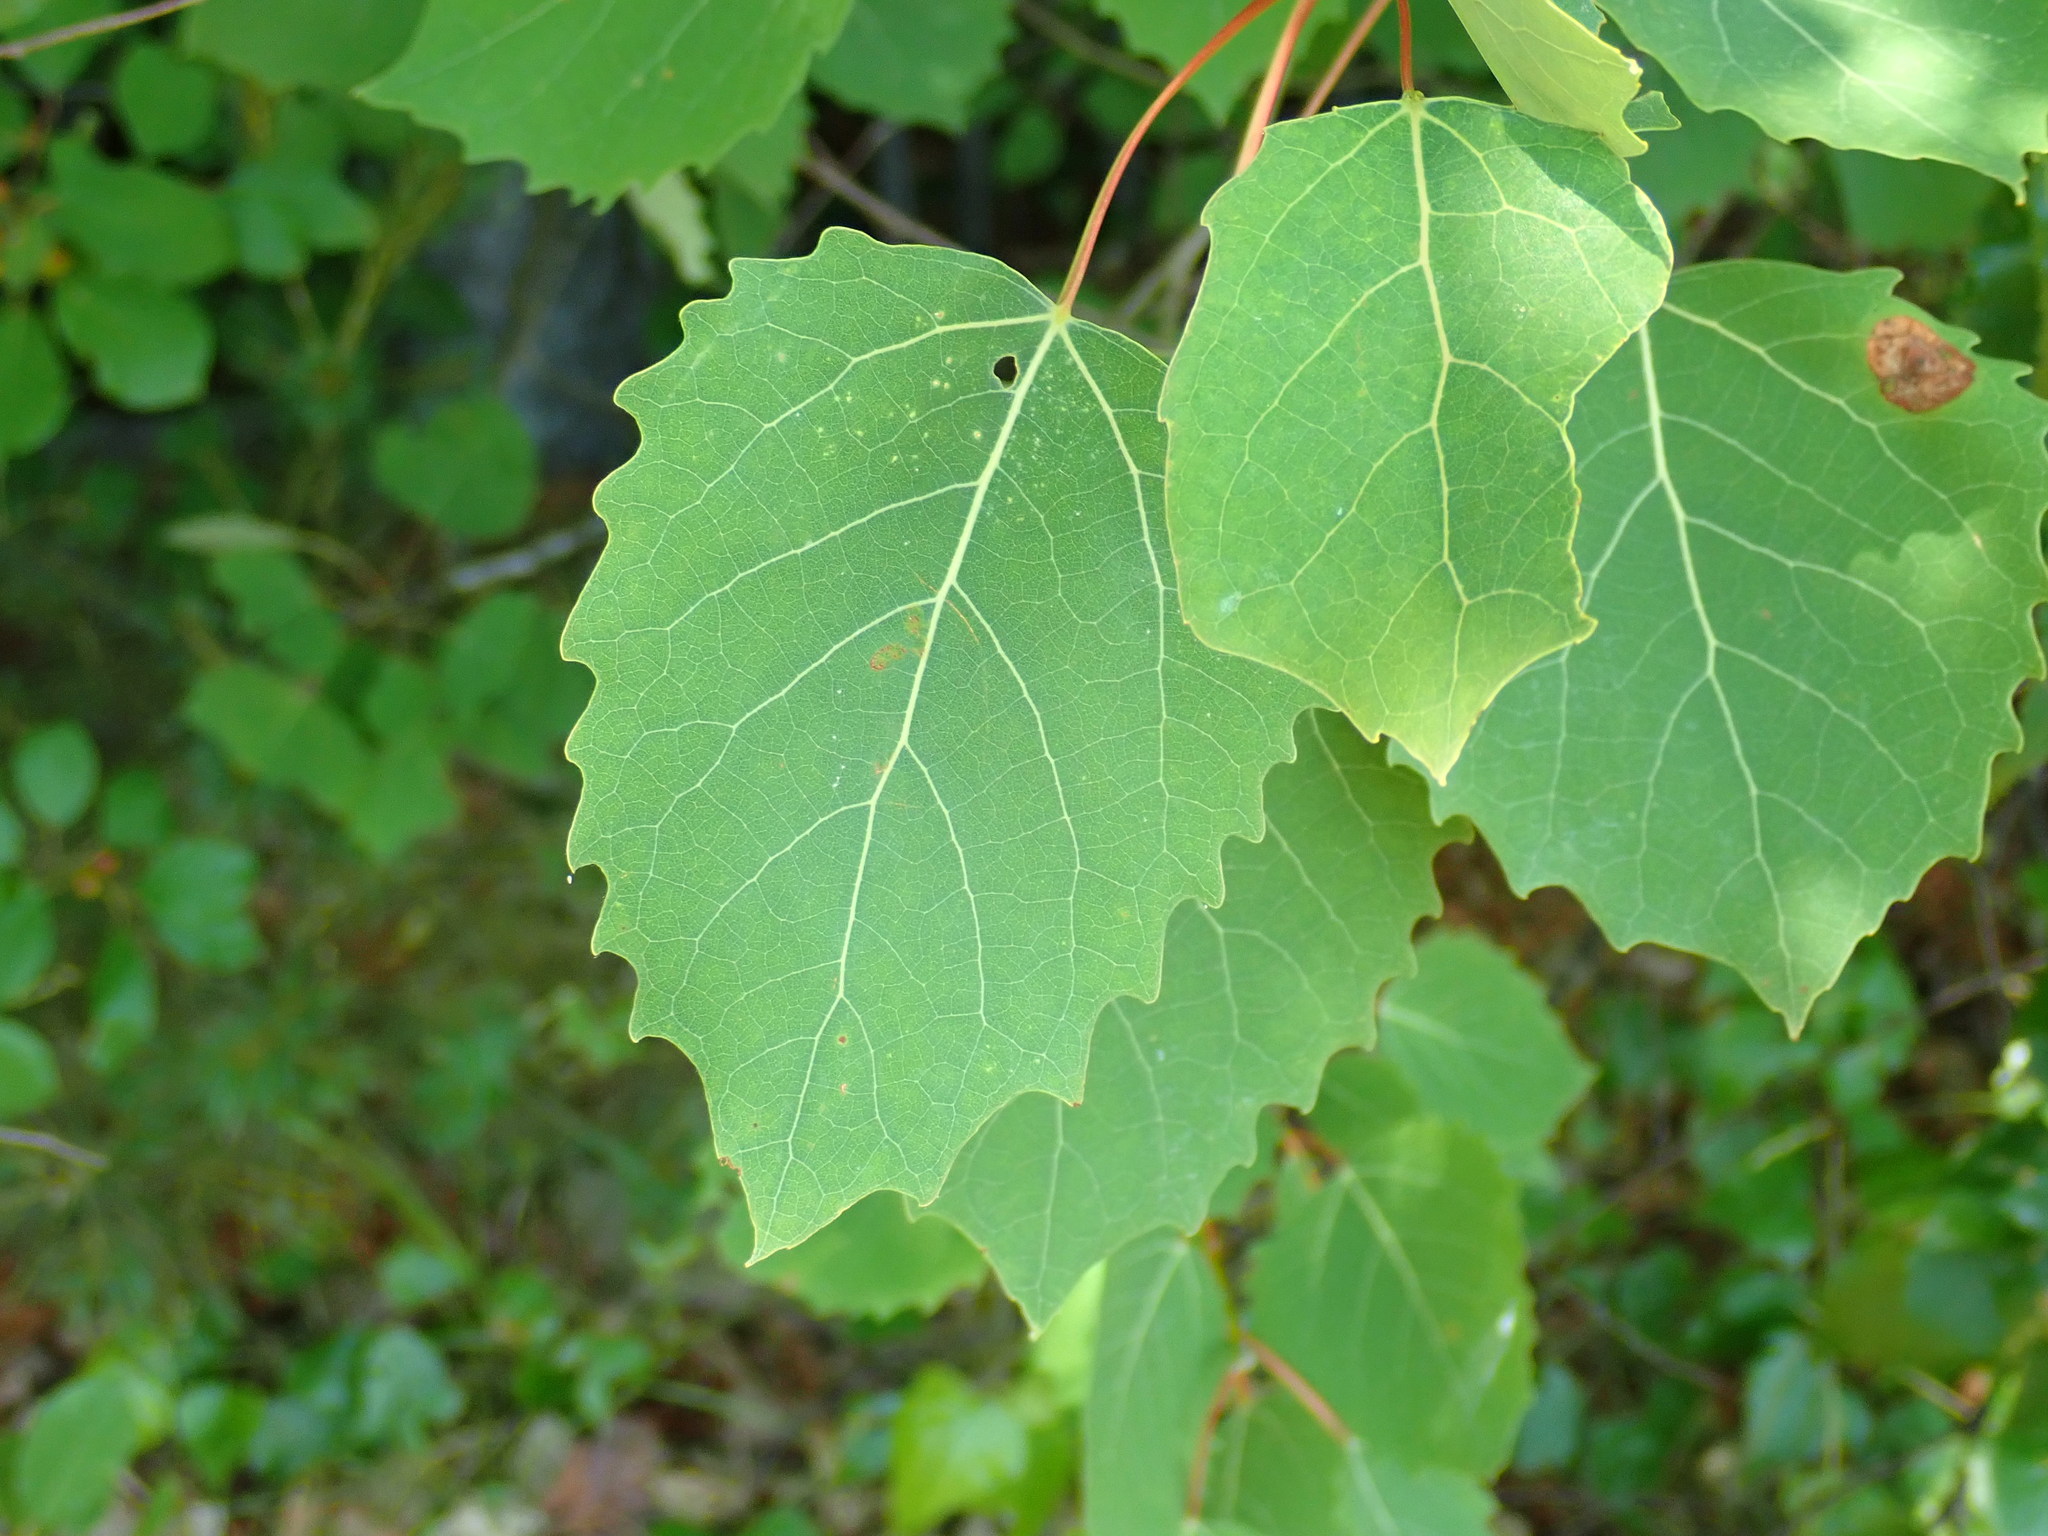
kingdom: Plantae
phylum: Tracheophyta
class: Magnoliopsida
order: Malpighiales
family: Salicaceae
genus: Populus
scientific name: Populus grandidentata
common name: Bigtooth aspen
